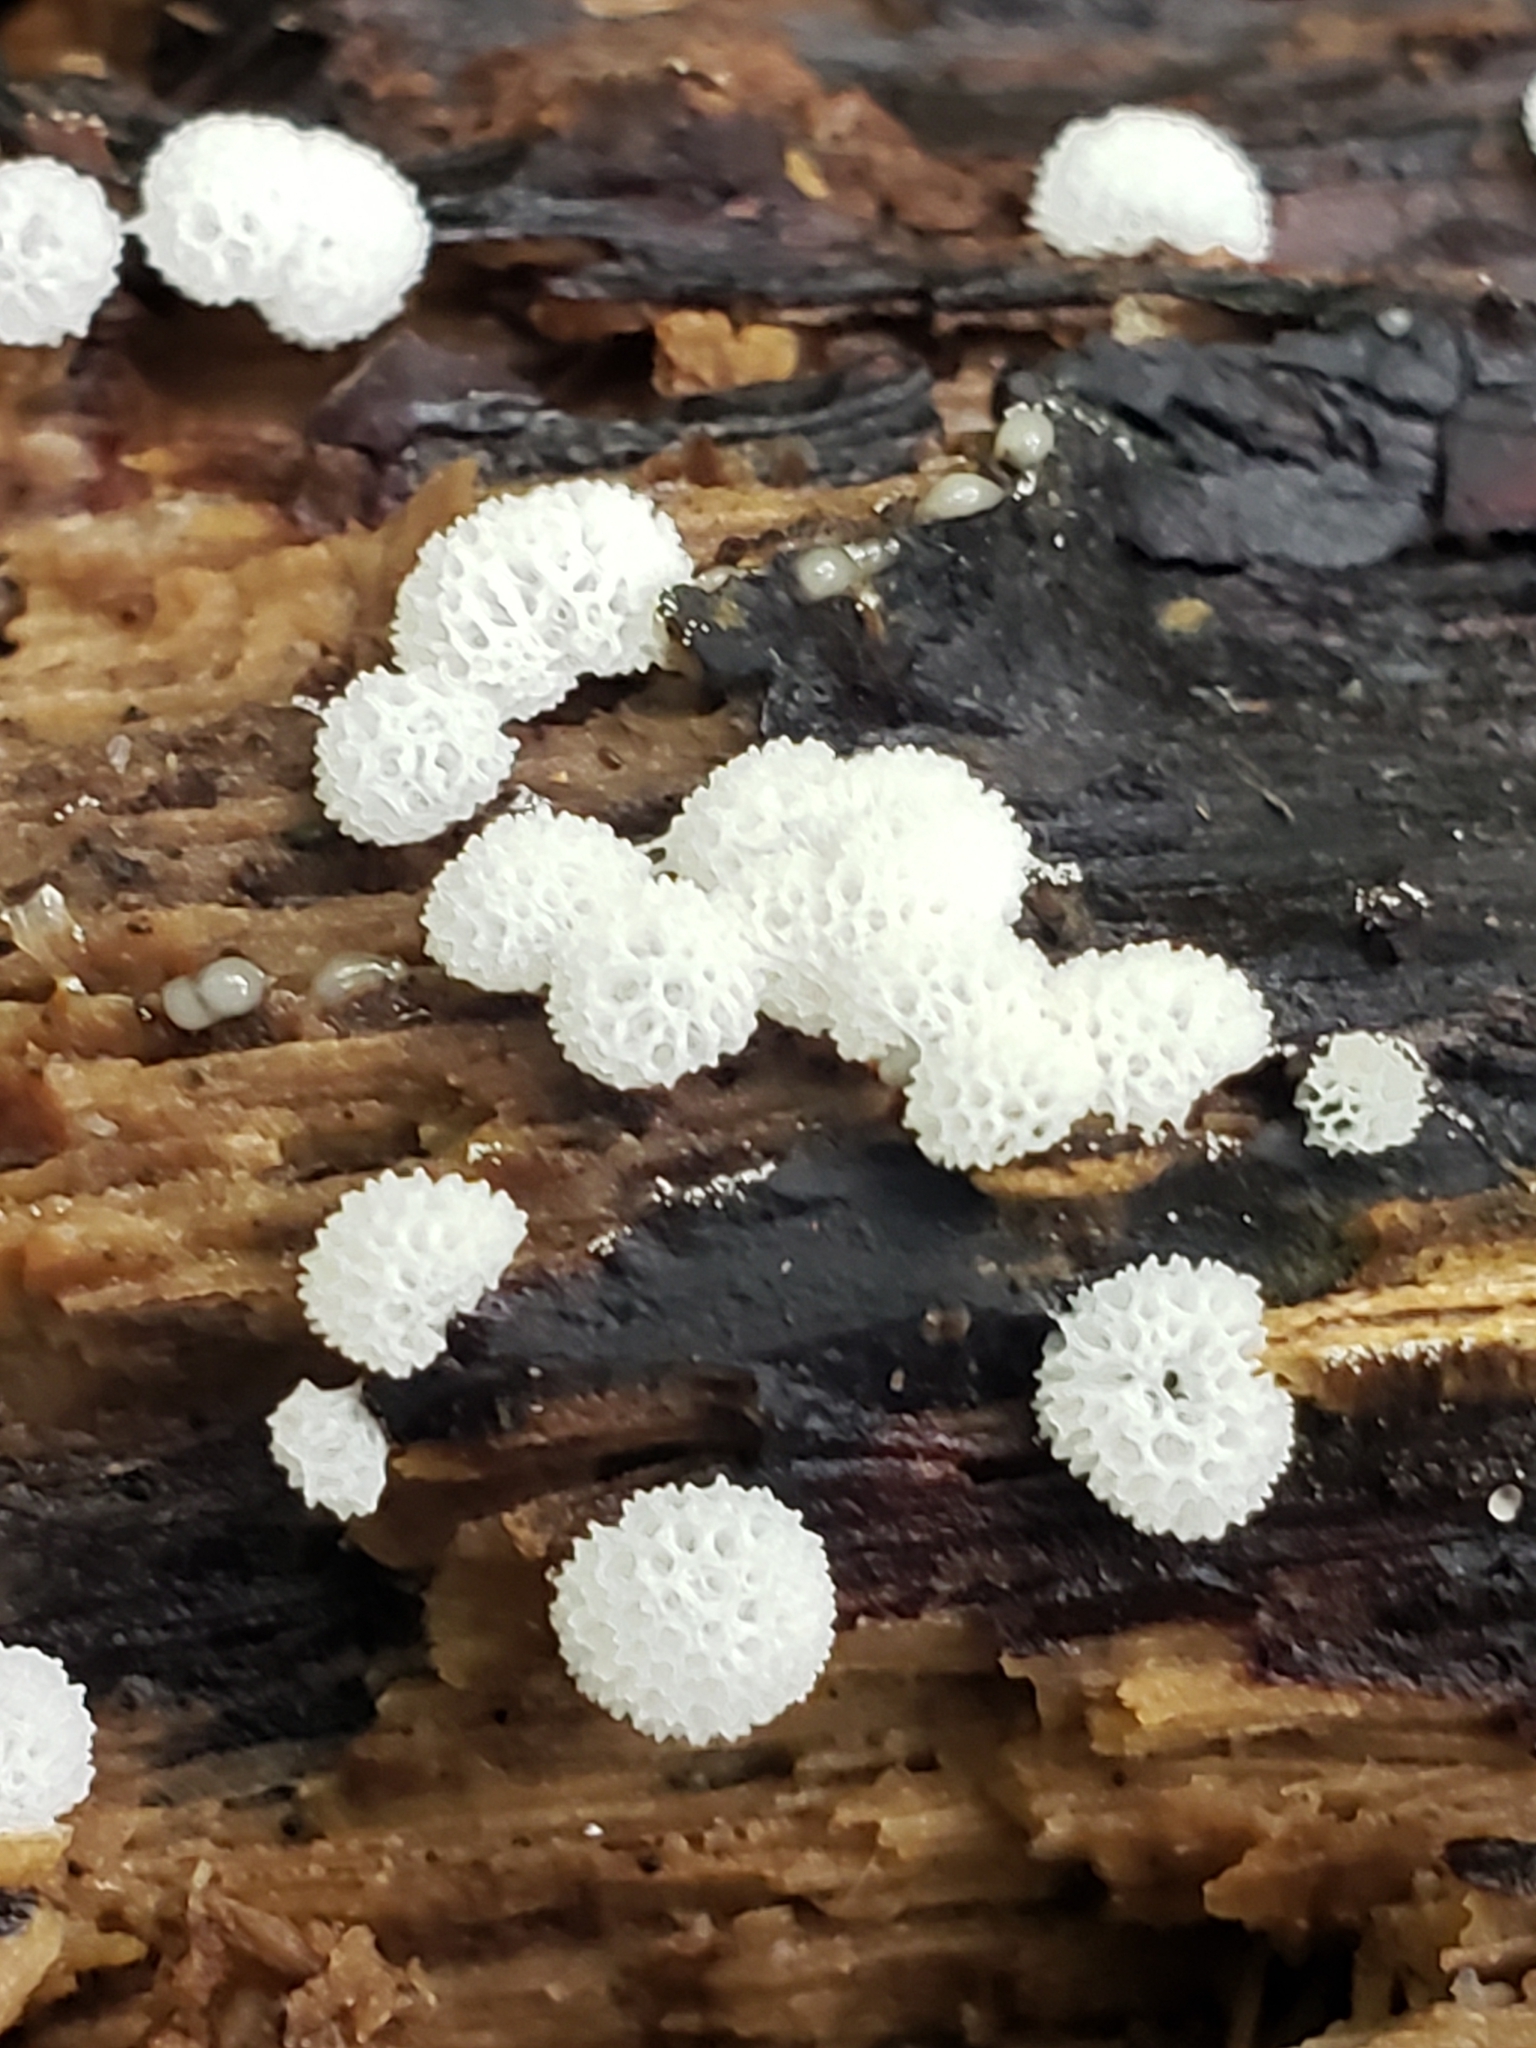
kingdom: Protozoa
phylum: Mycetozoa
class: Protosteliomycetes
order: Ceratiomyxales
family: Ceratiomyxaceae
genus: Ceratiomyxa
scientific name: Ceratiomyxa fruticulosa
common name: Honeycomb coral slime mold
